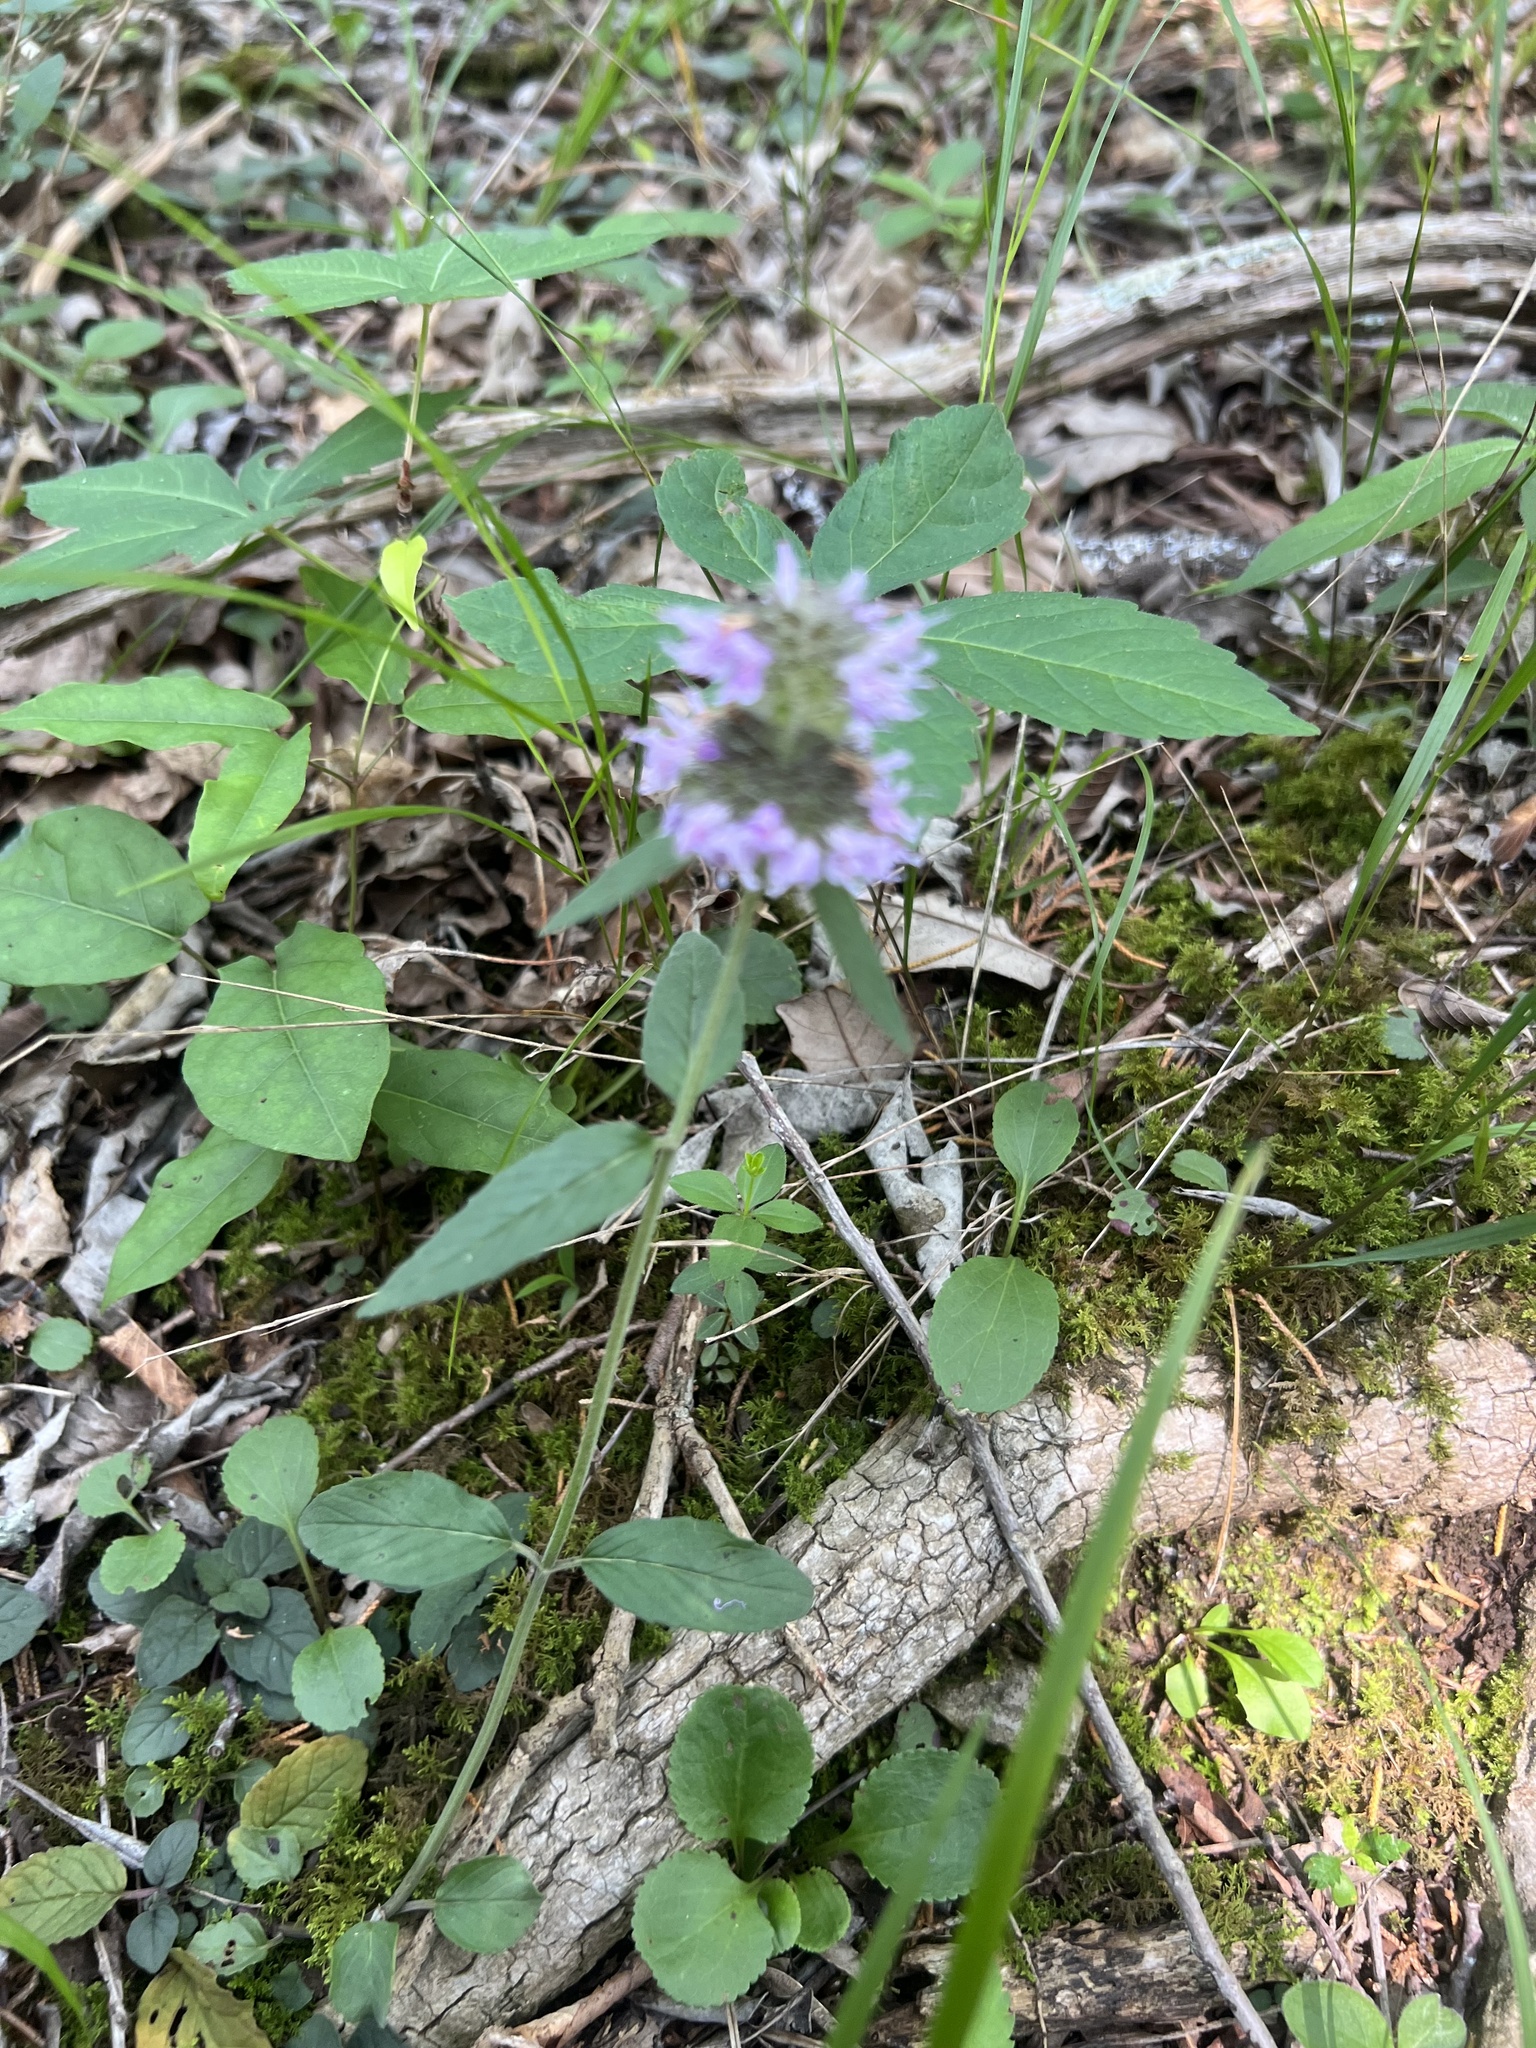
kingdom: Plantae
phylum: Tracheophyta
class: Magnoliopsida
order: Lamiales
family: Lamiaceae
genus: Blephilia
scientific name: Blephilia ciliata
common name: Downy blephilia
